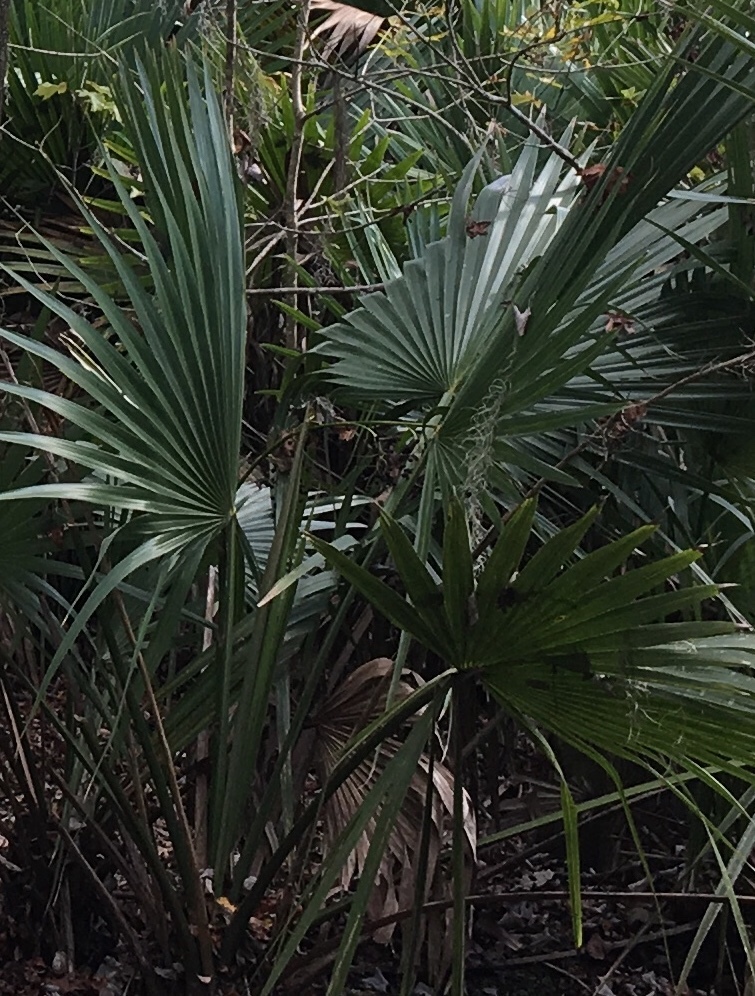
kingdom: Plantae
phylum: Tracheophyta
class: Liliopsida
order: Arecales
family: Arecaceae
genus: Sabal
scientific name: Sabal minor
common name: Dwarf palmetto
